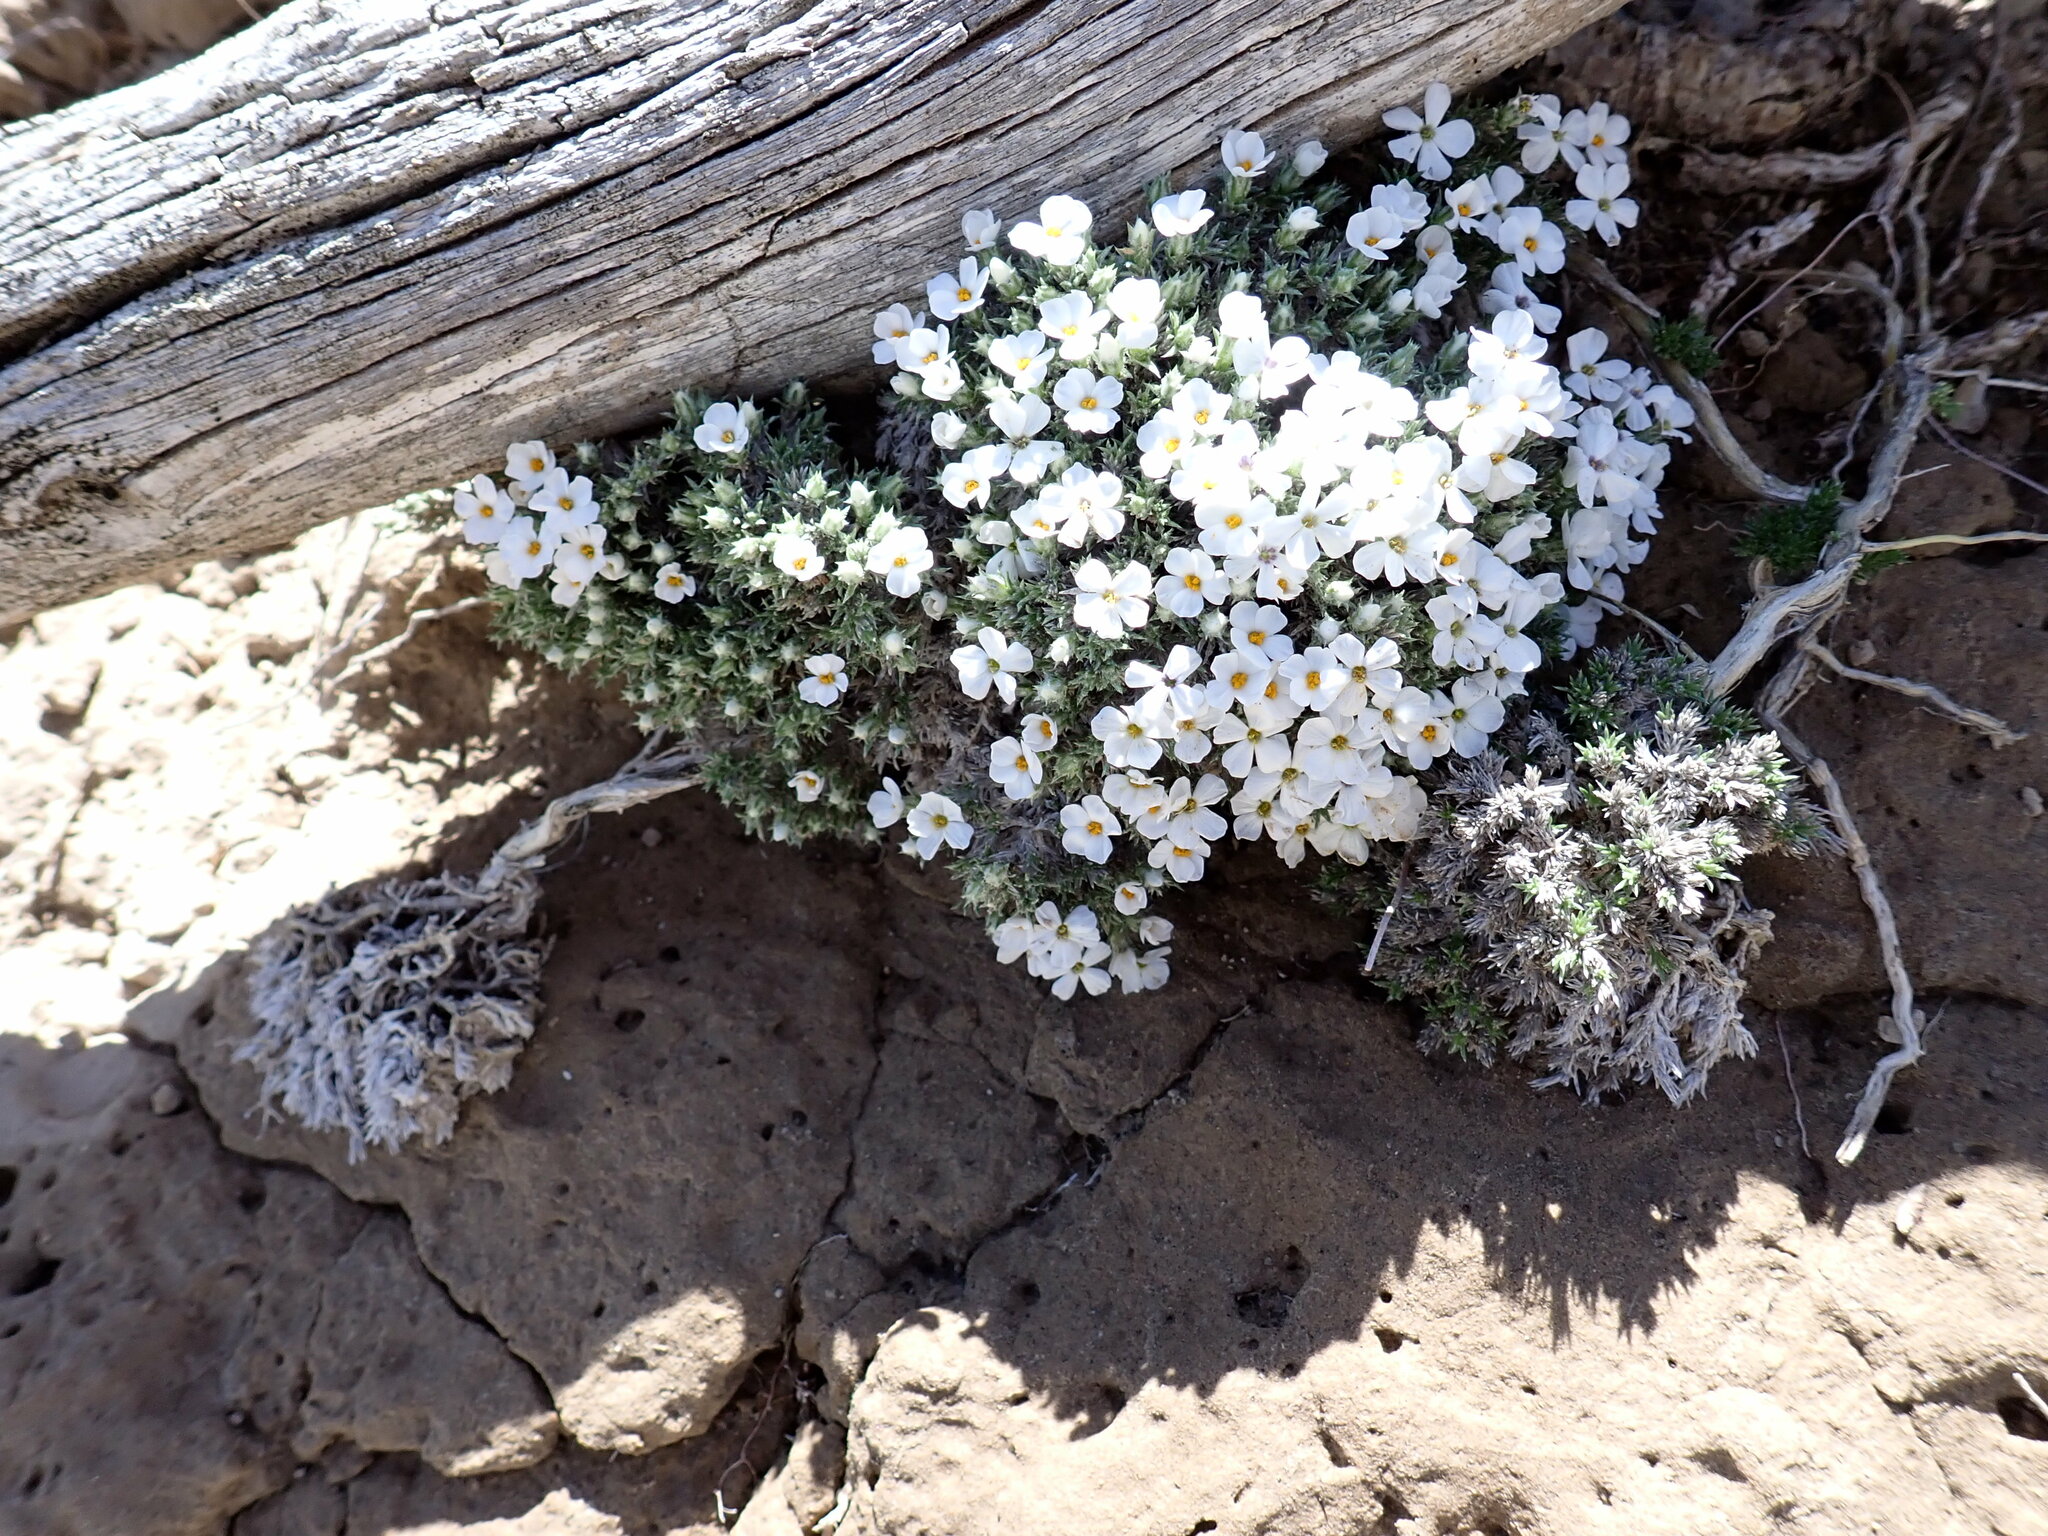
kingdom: Plantae
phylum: Tracheophyta
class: Magnoliopsida
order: Ericales
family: Polemoniaceae
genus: Phlox
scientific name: Phlox hoodii
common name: Moss phlox
